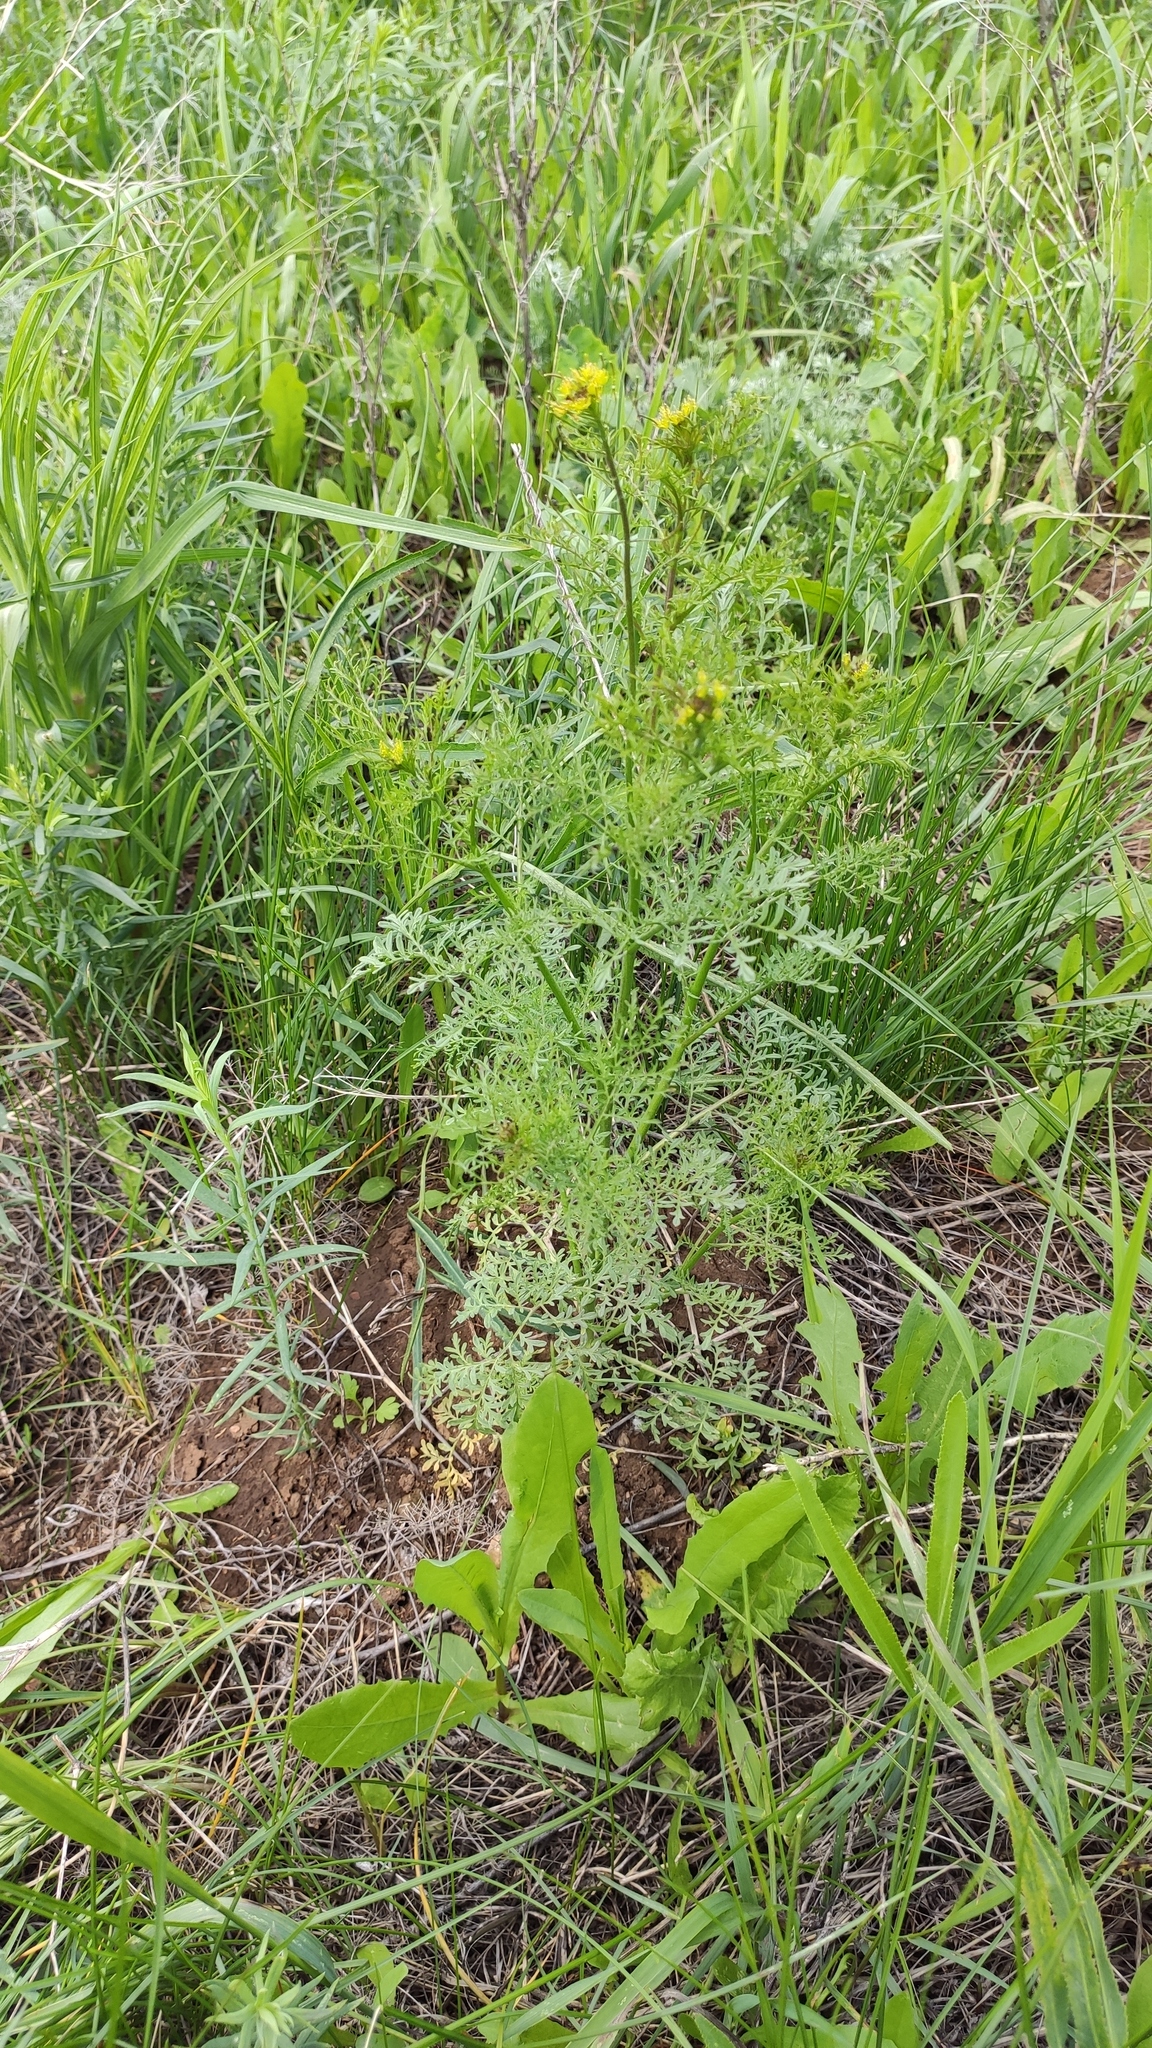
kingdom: Plantae
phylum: Tracheophyta
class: Magnoliopsida
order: Brassicales
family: Brassicaceae
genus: Descurainia
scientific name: Descurainia sophia
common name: Flixweed
